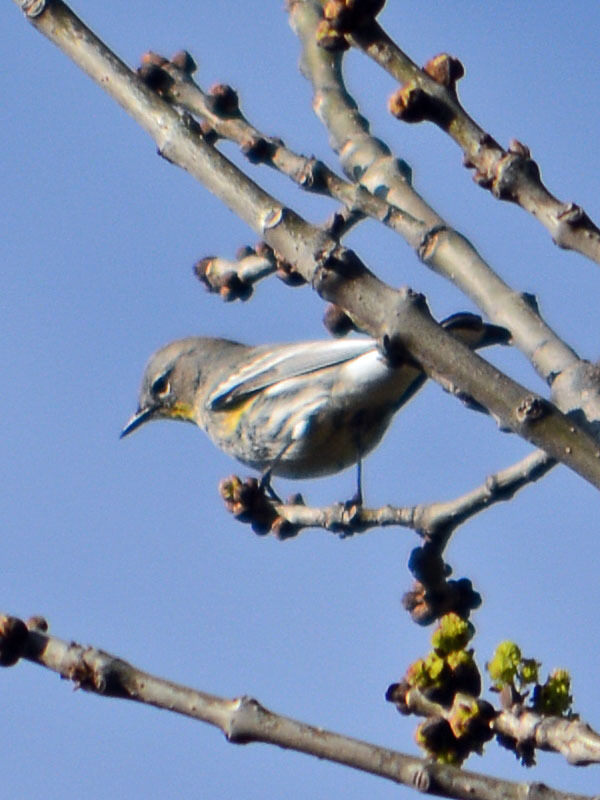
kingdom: Animalia
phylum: Chordata
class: Aves
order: Passeriformes
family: Parulidae
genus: Setophaga
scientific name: Setophaga auduboni
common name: Audubon's warbler
